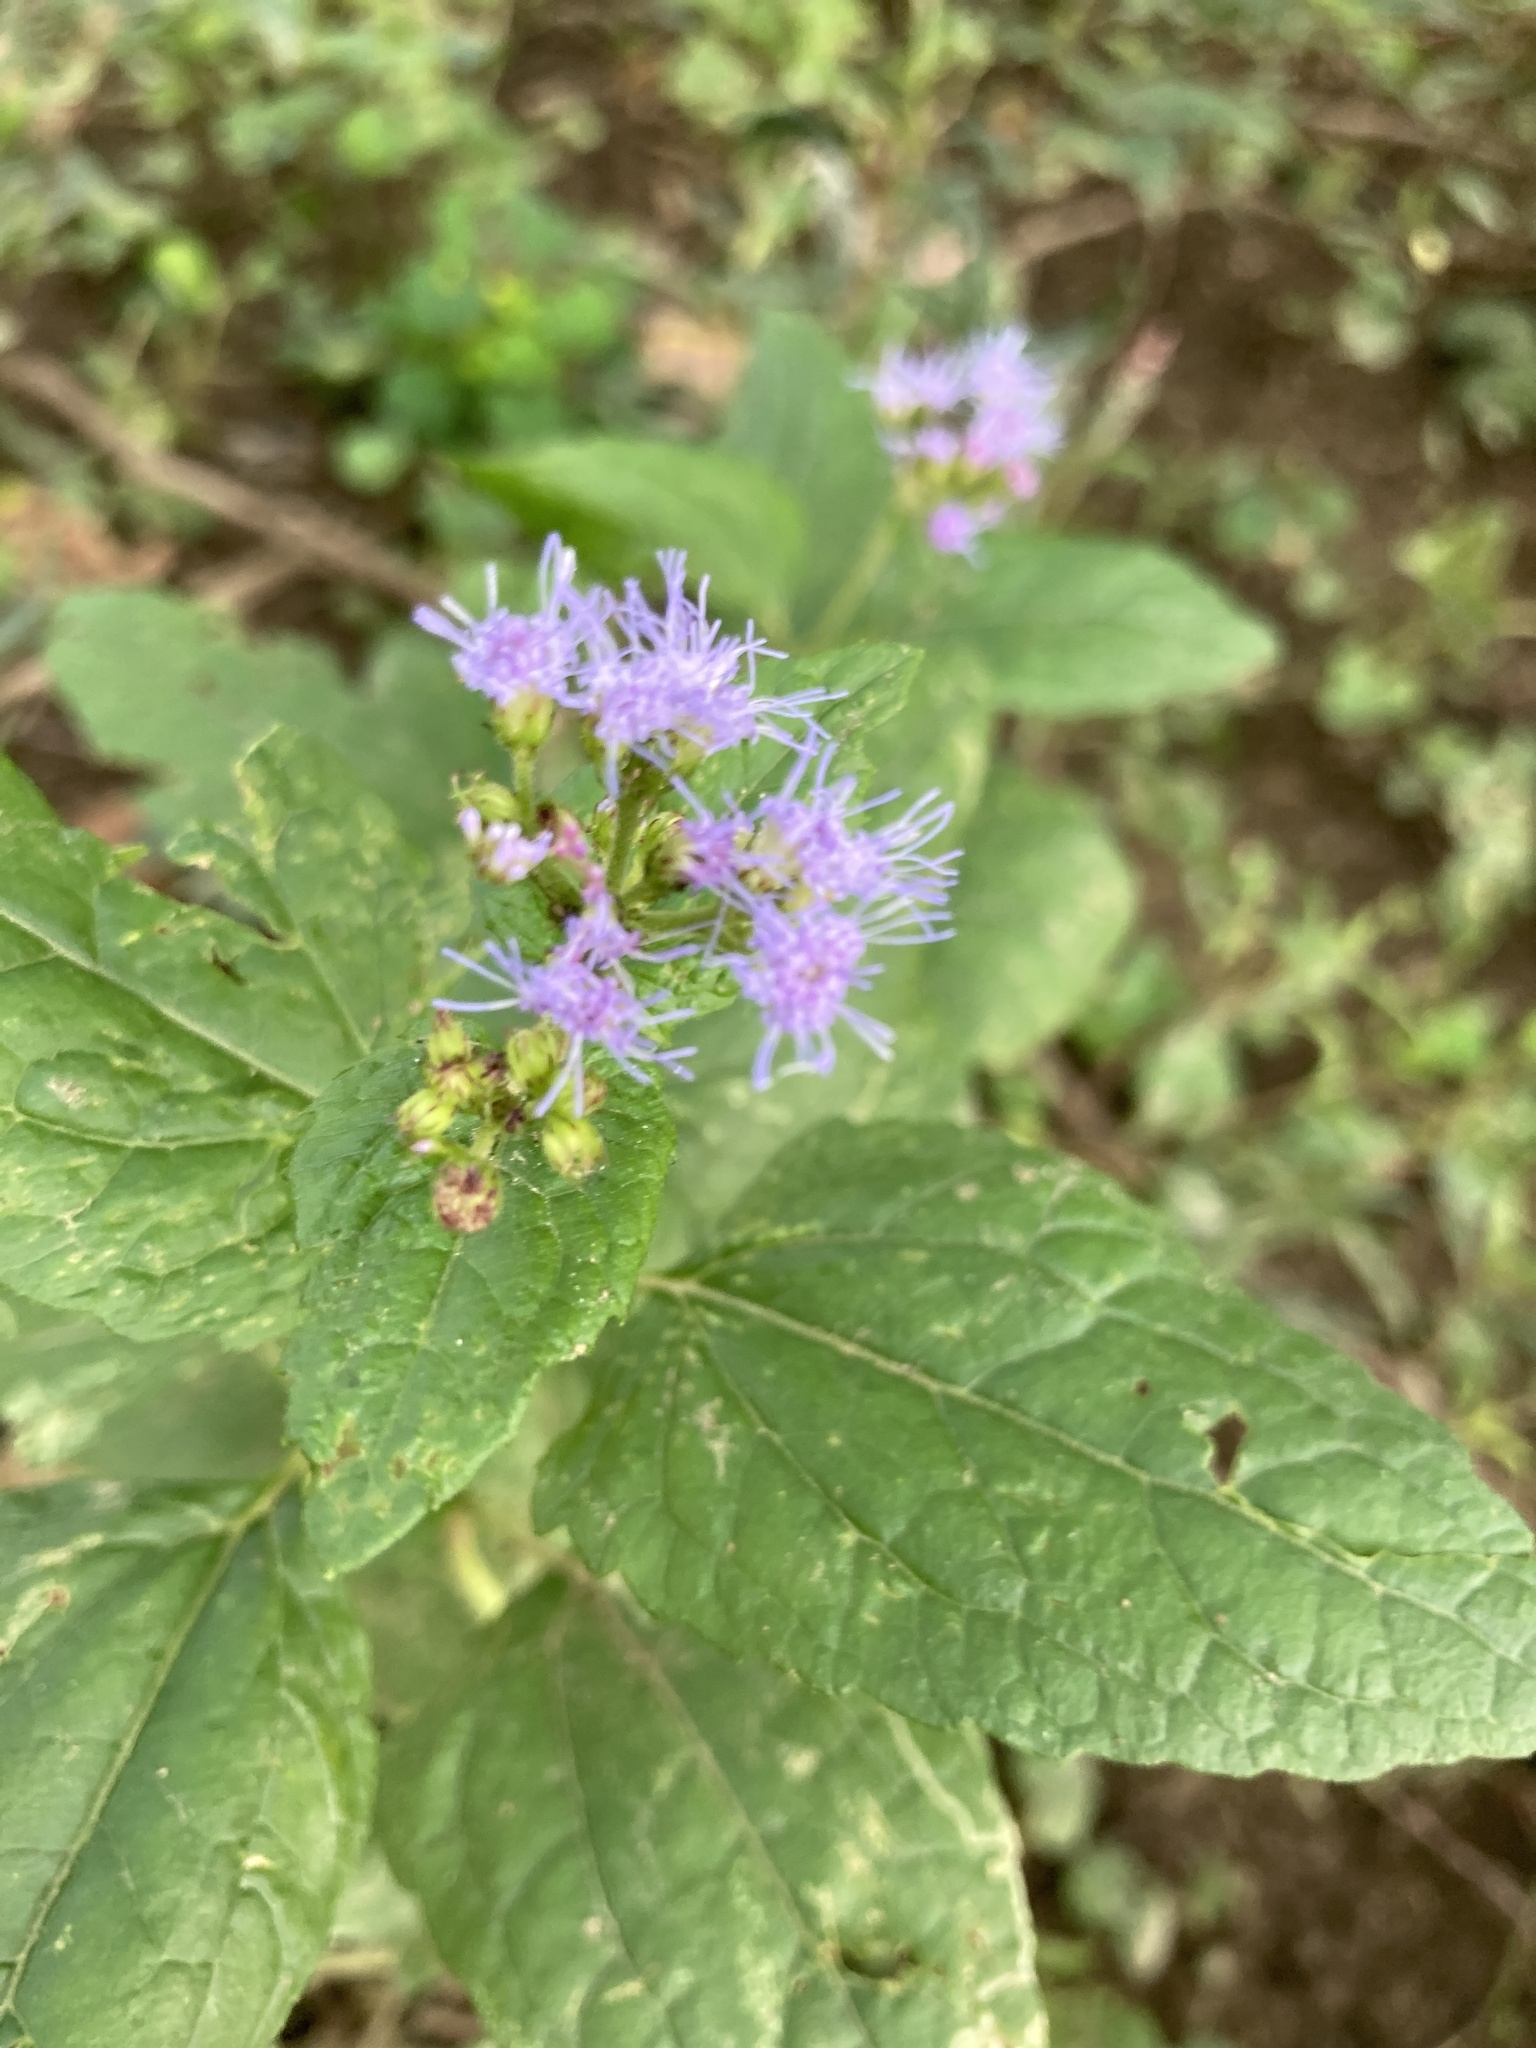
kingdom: Plantae
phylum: Tracheophyta
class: Magnoliopsida
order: Asterales
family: Asteraceae
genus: Conoclinium
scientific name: Conoclinium coelestinum
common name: Blue mistflower
